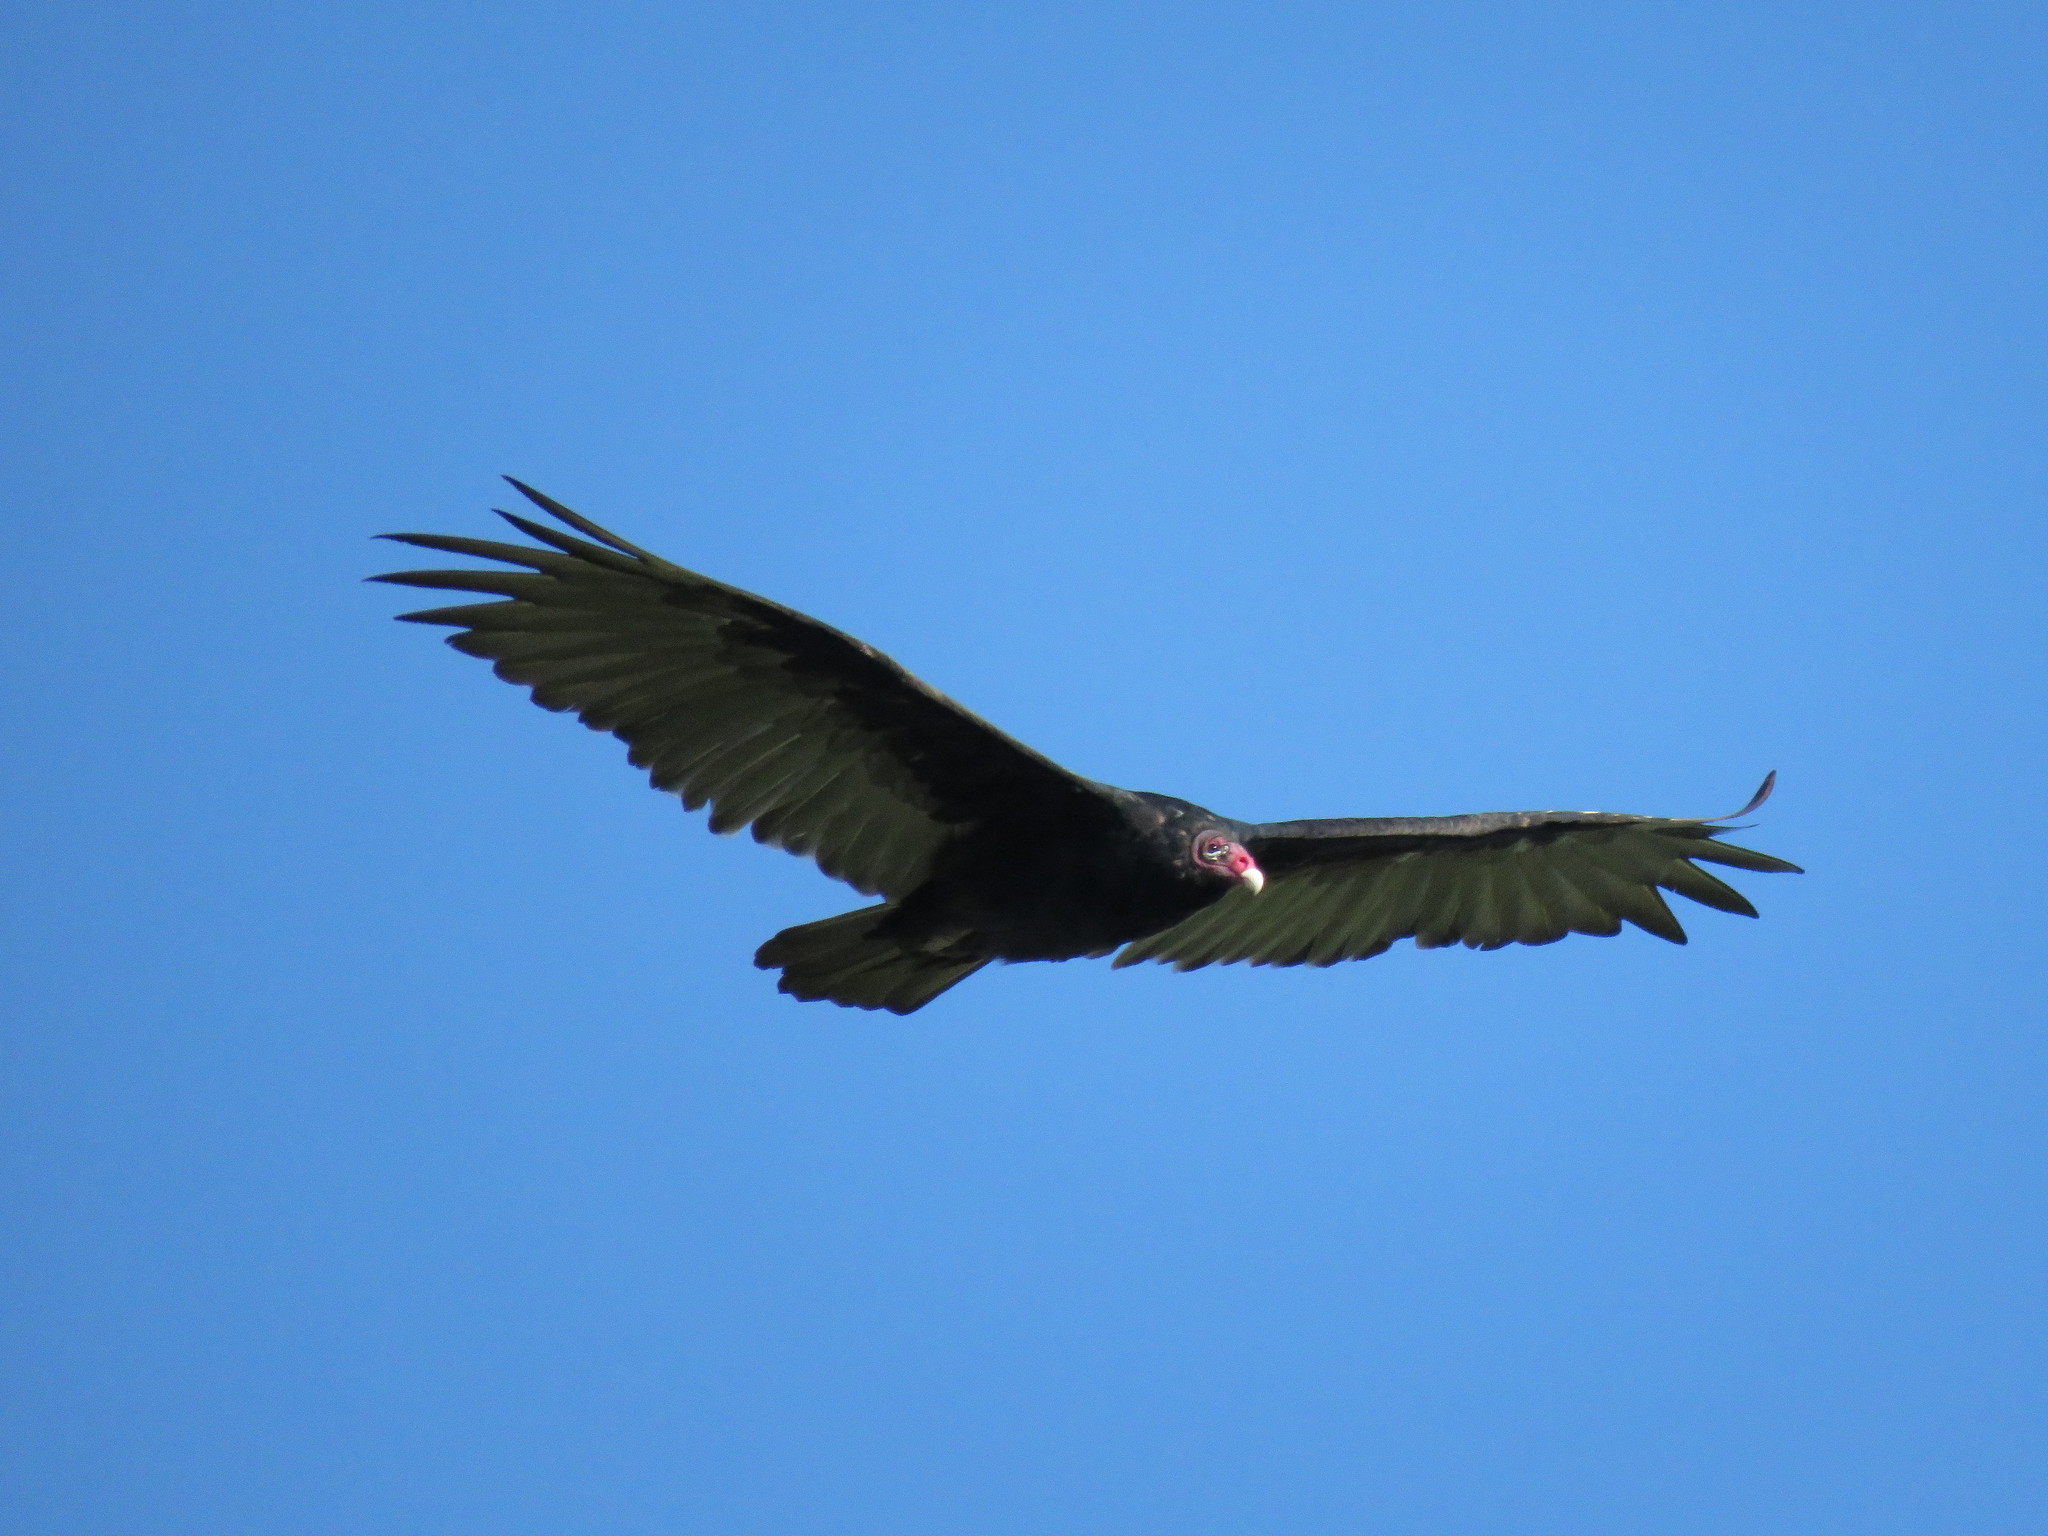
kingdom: Animalia
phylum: Chordata
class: Aves
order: Accipitriformes
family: Cathartidae
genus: Cathartes
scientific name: Cathartes aura
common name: Turkey vulture
